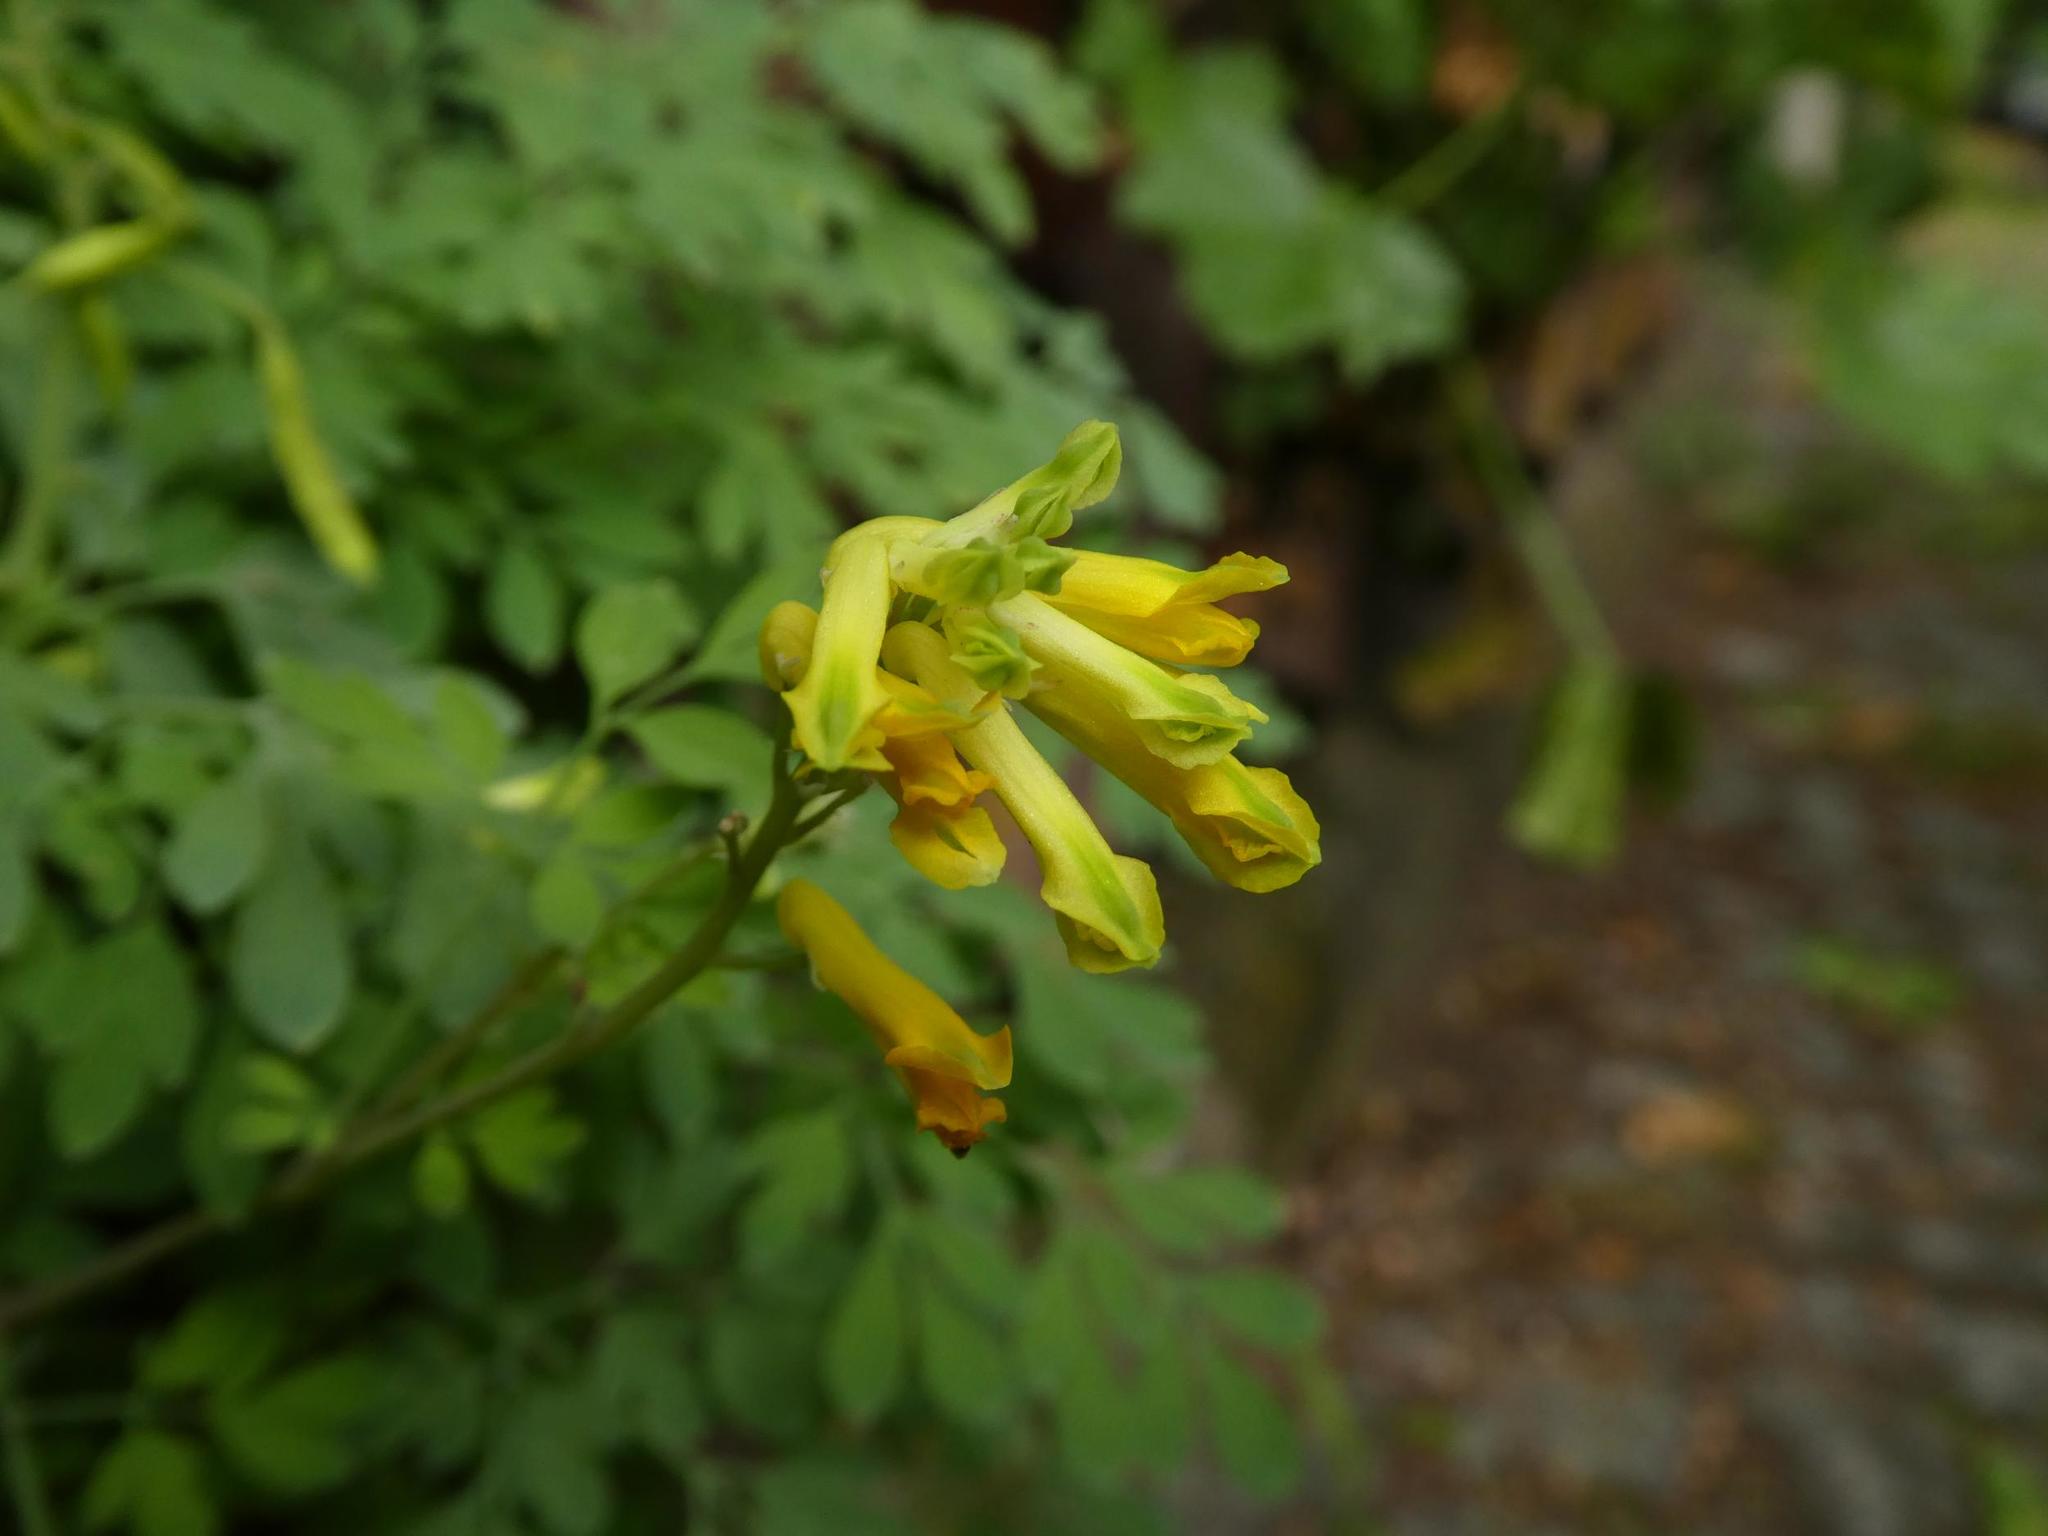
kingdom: Plantae
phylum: Tracheophyta
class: Magnoliopsida
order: Ranunculales
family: Papaveraceae
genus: Pseudofumaria
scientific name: Pseudofumaria lutea
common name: Yellow corydalis
